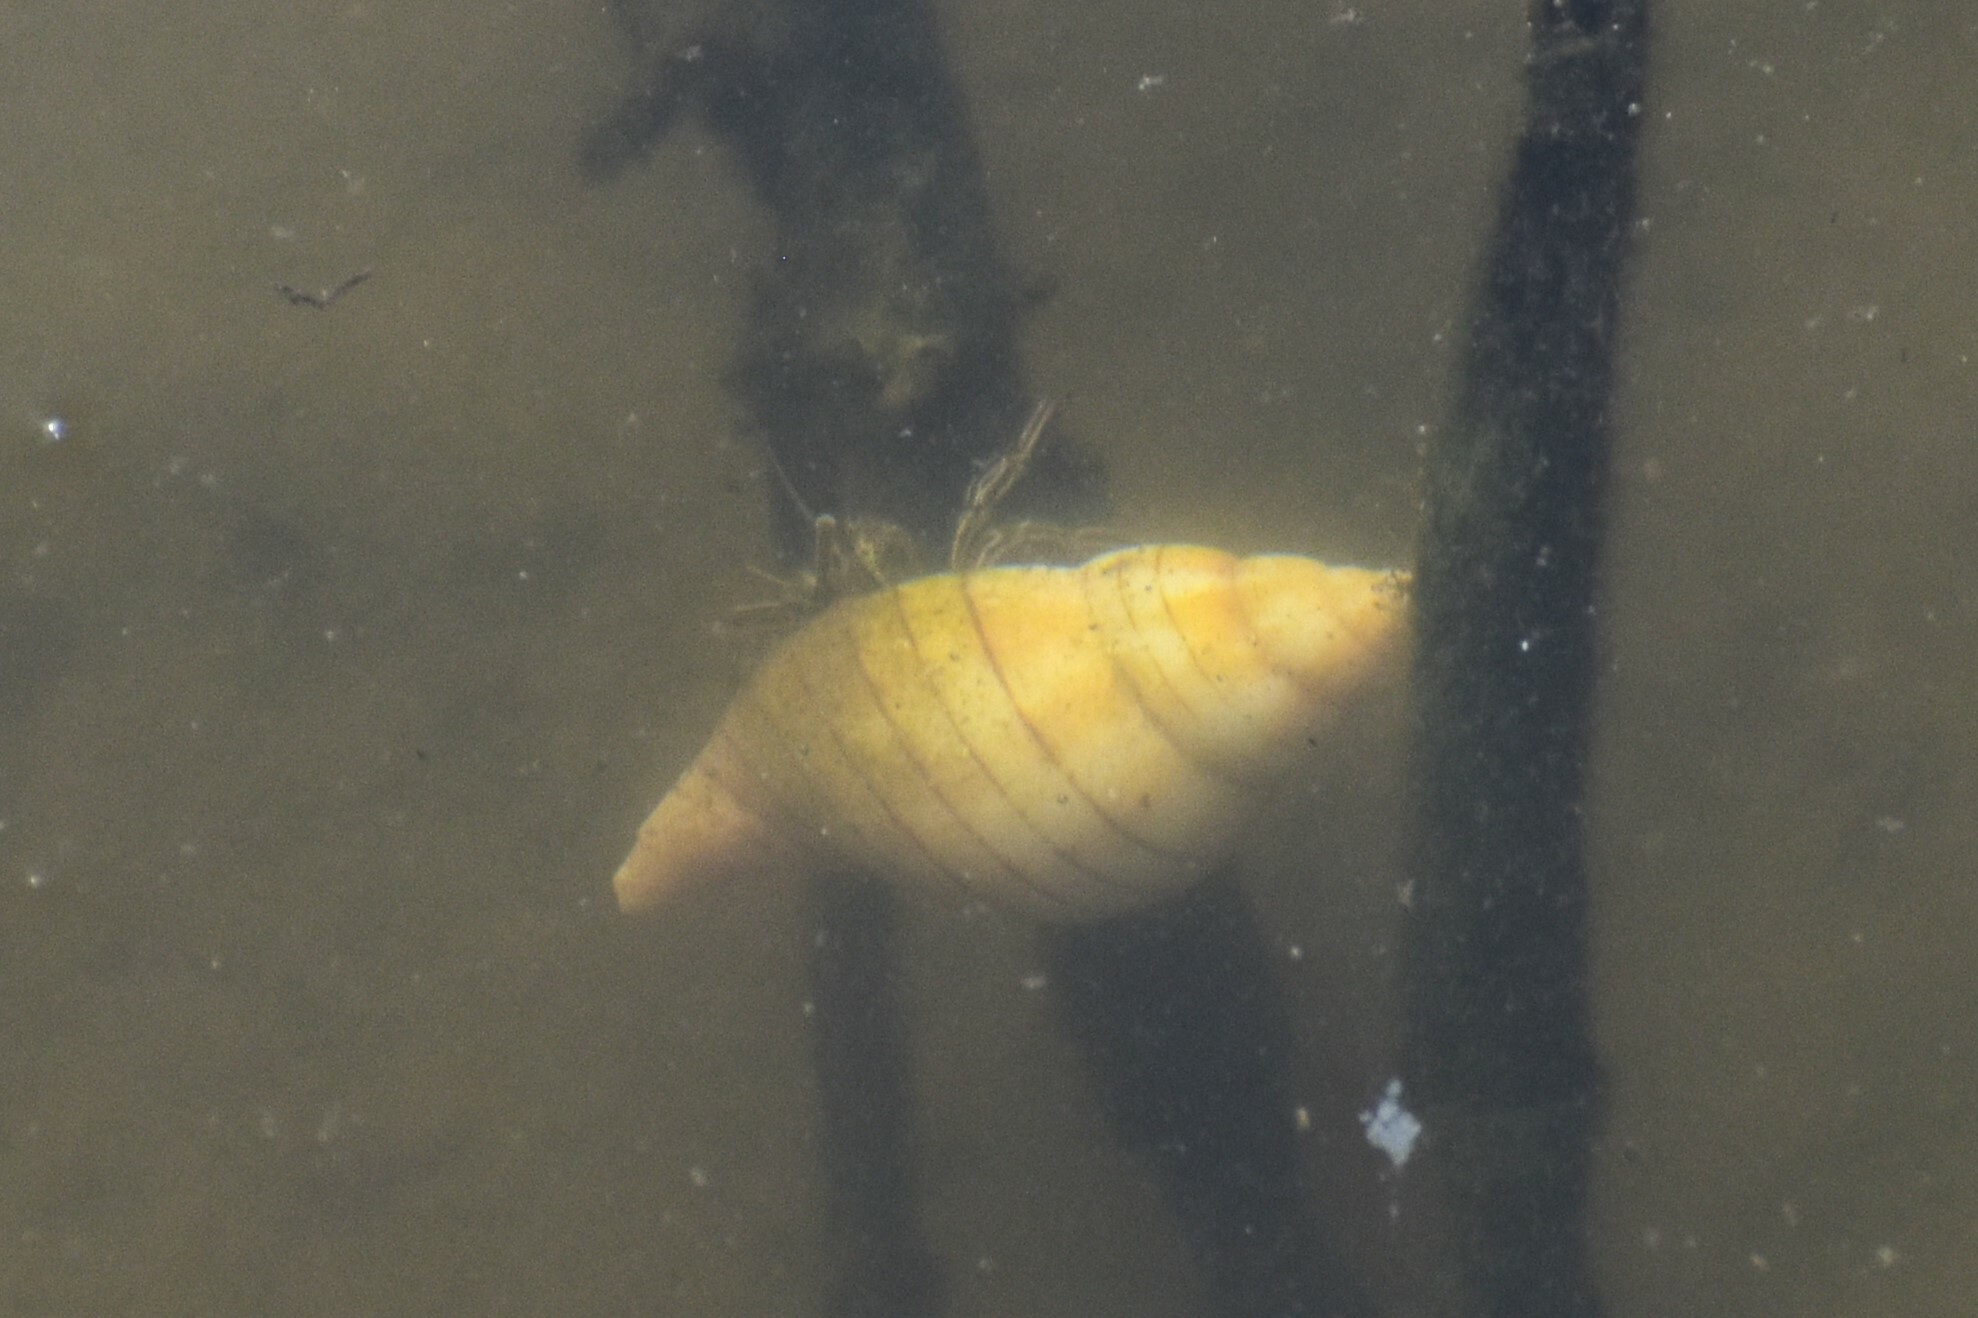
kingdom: Animalia
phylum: Arthropoda
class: Malacostraca
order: Decapoda
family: Diogenidae
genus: Clibanarius
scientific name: Clibanarius vittatus
